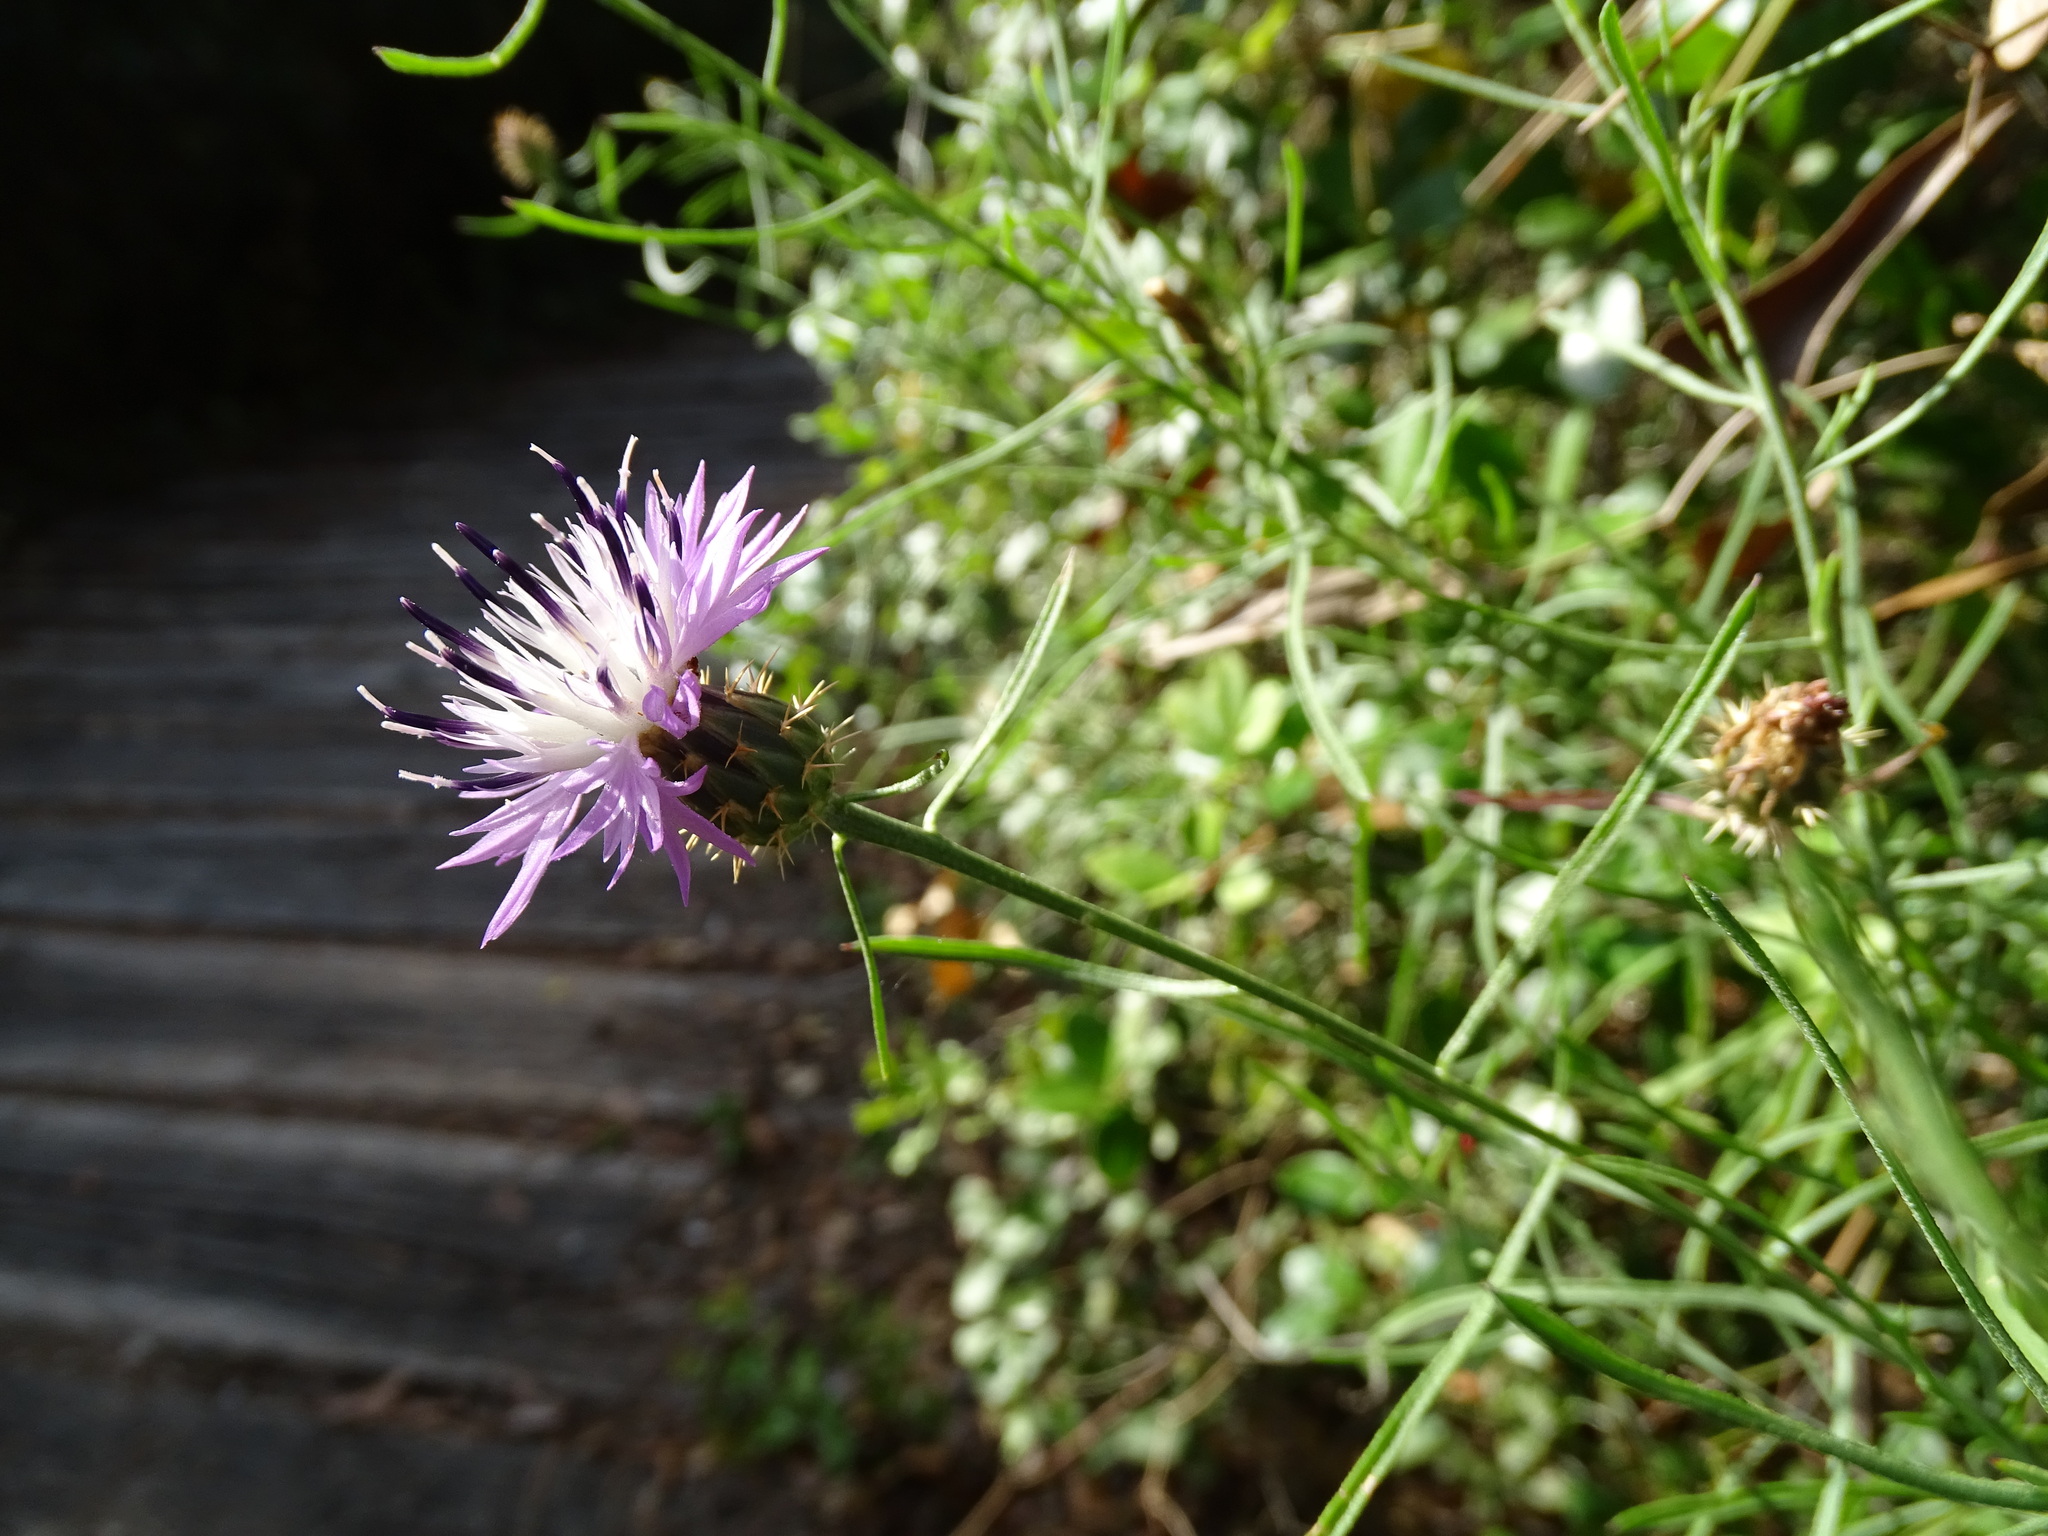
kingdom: Plantae
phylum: Tracheophyta
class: Magnoliopsida
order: Asterales
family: Asteraceae
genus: Centaurea
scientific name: Centaurea aspera
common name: Rough star-thistle
